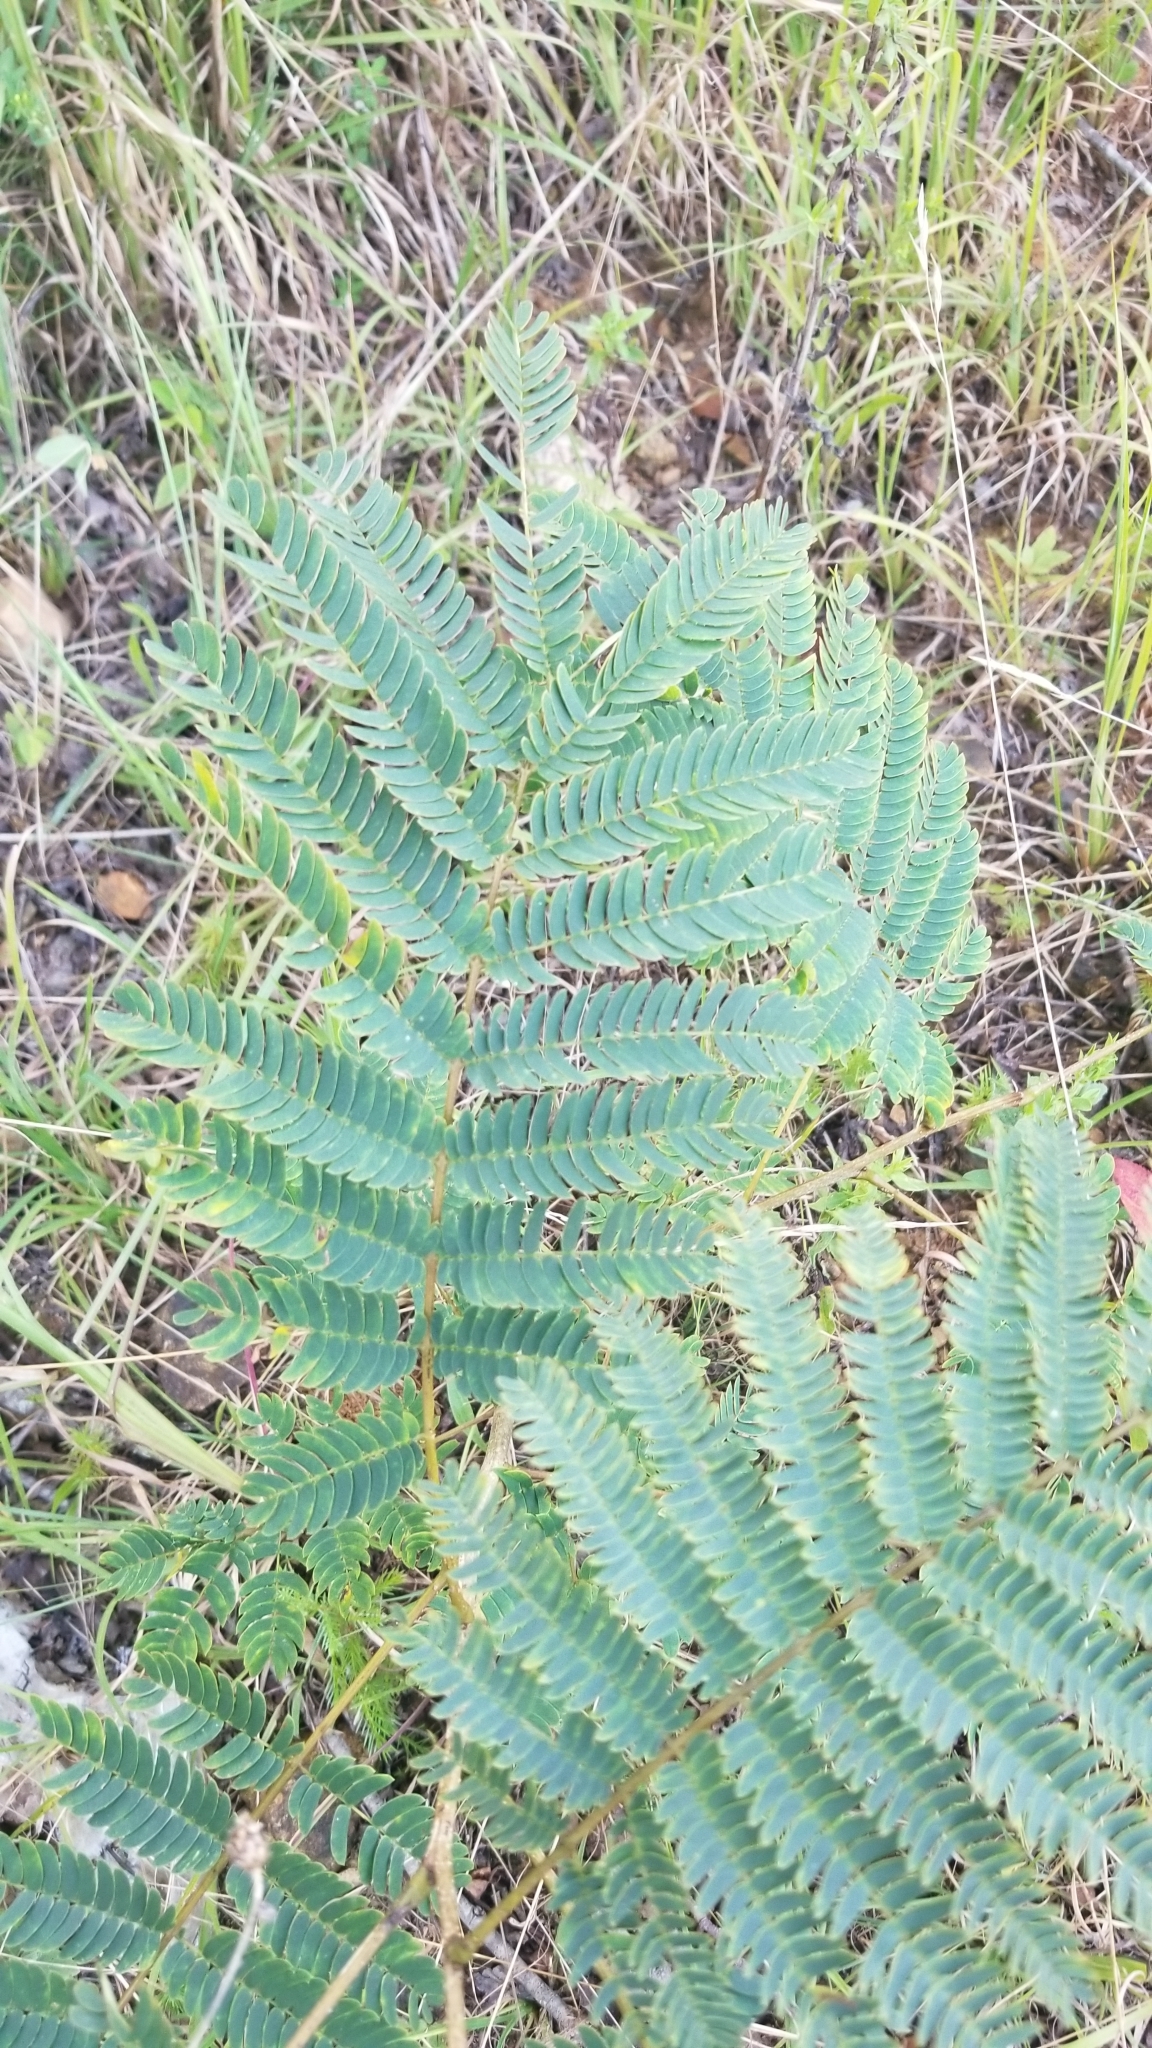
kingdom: Plantae
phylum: Tracheophyta
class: Magnoliopsida
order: Fabales
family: Fabaceae
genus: Albizia
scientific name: Albizia julibrissin
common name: Silktree
